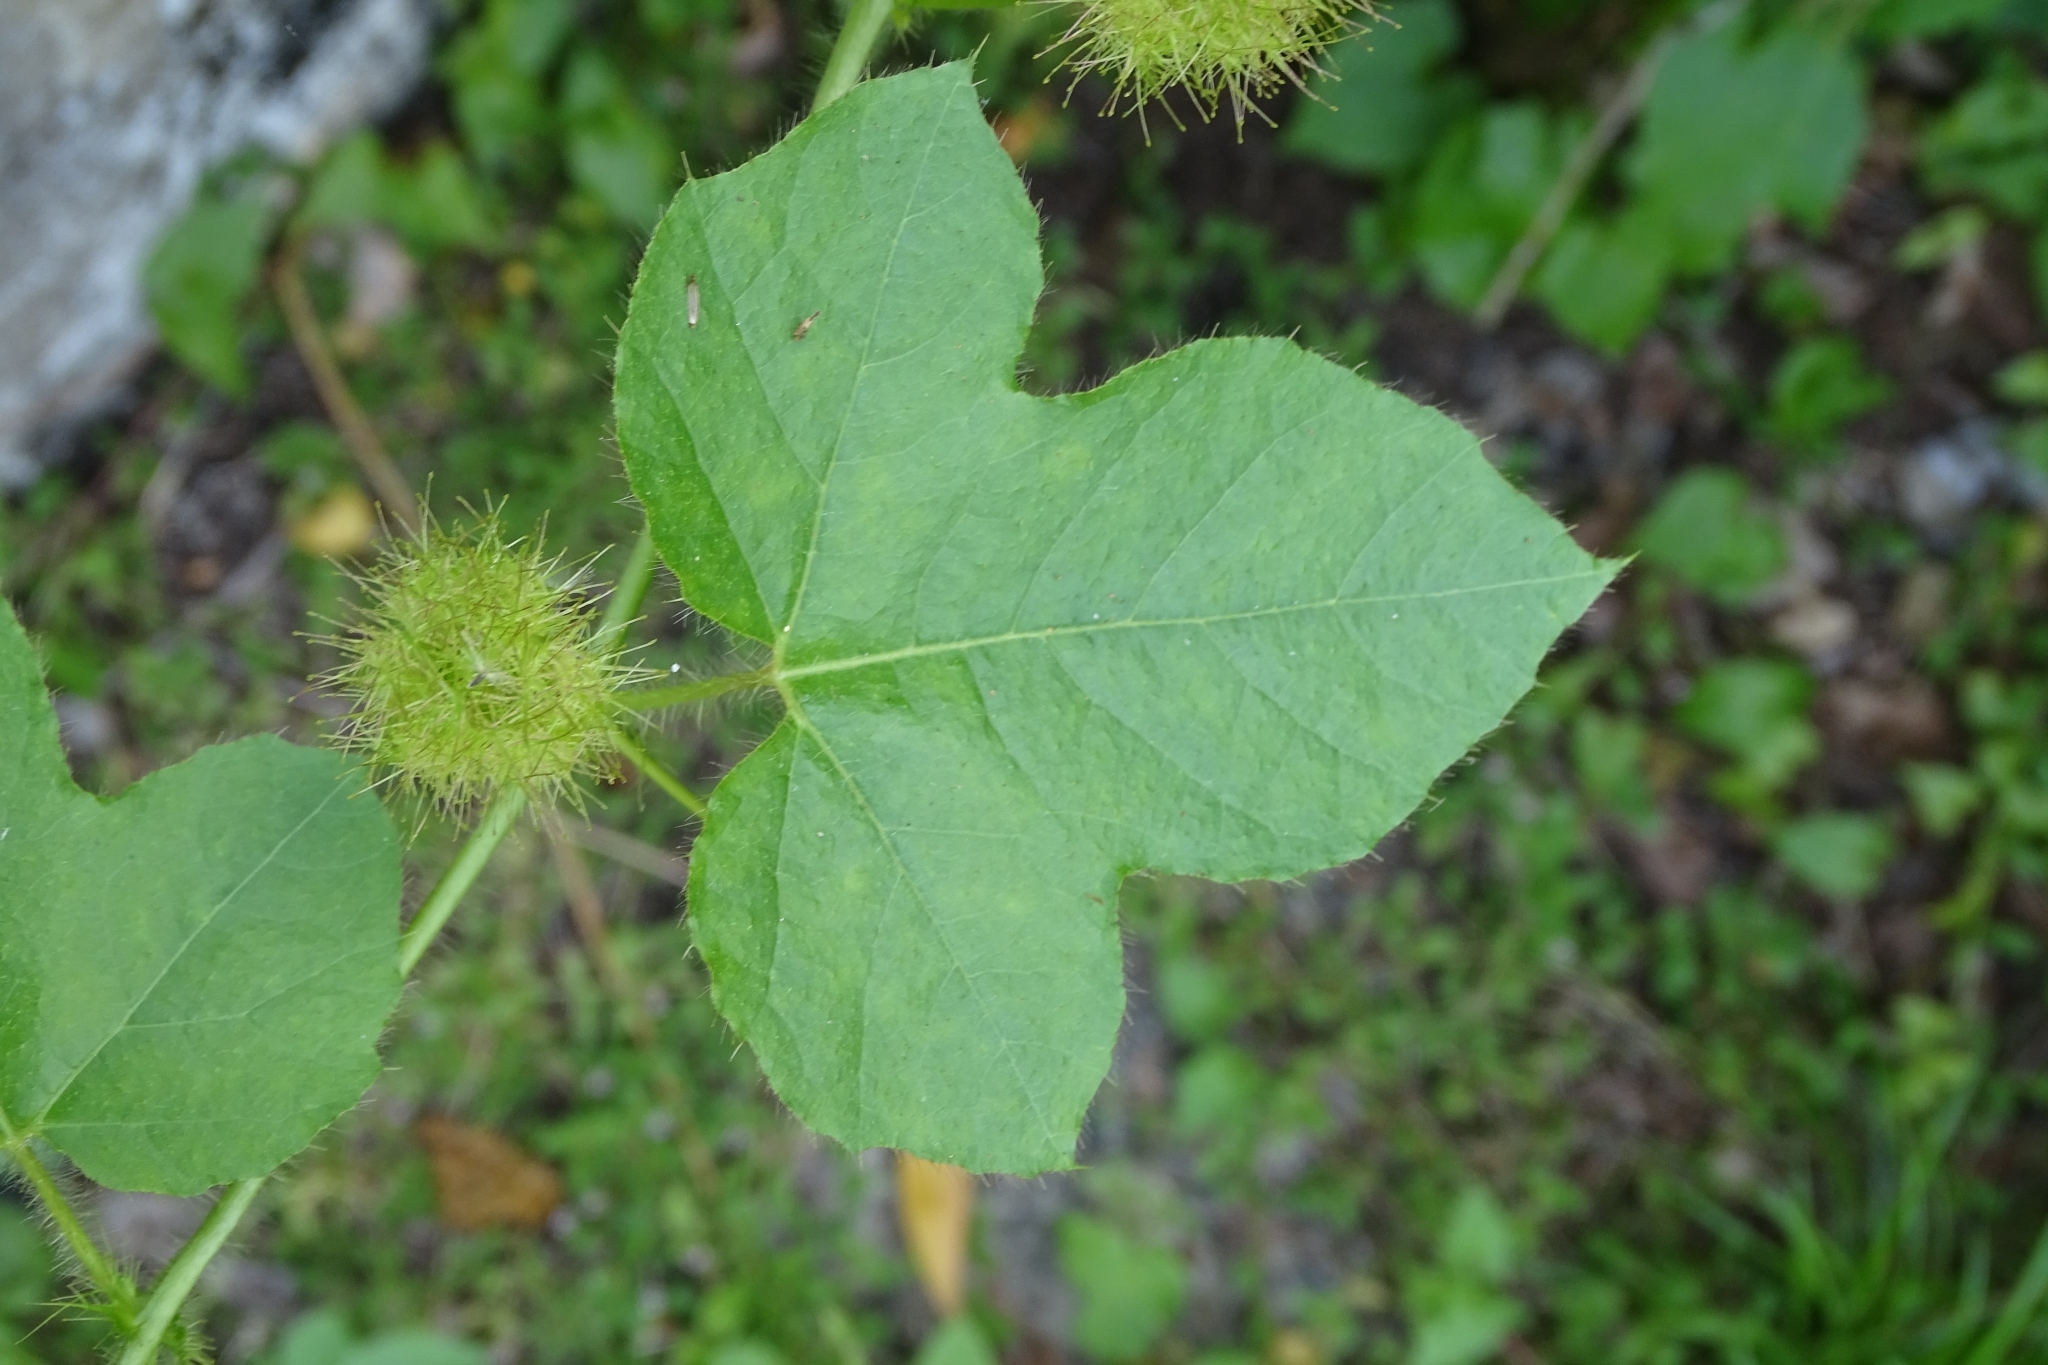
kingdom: Plantae
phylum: Tracheophyta
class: Magnoliopsida
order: Malpighiales
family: Passifloraceae
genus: Passiflora
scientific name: Passiflora vesicaria
